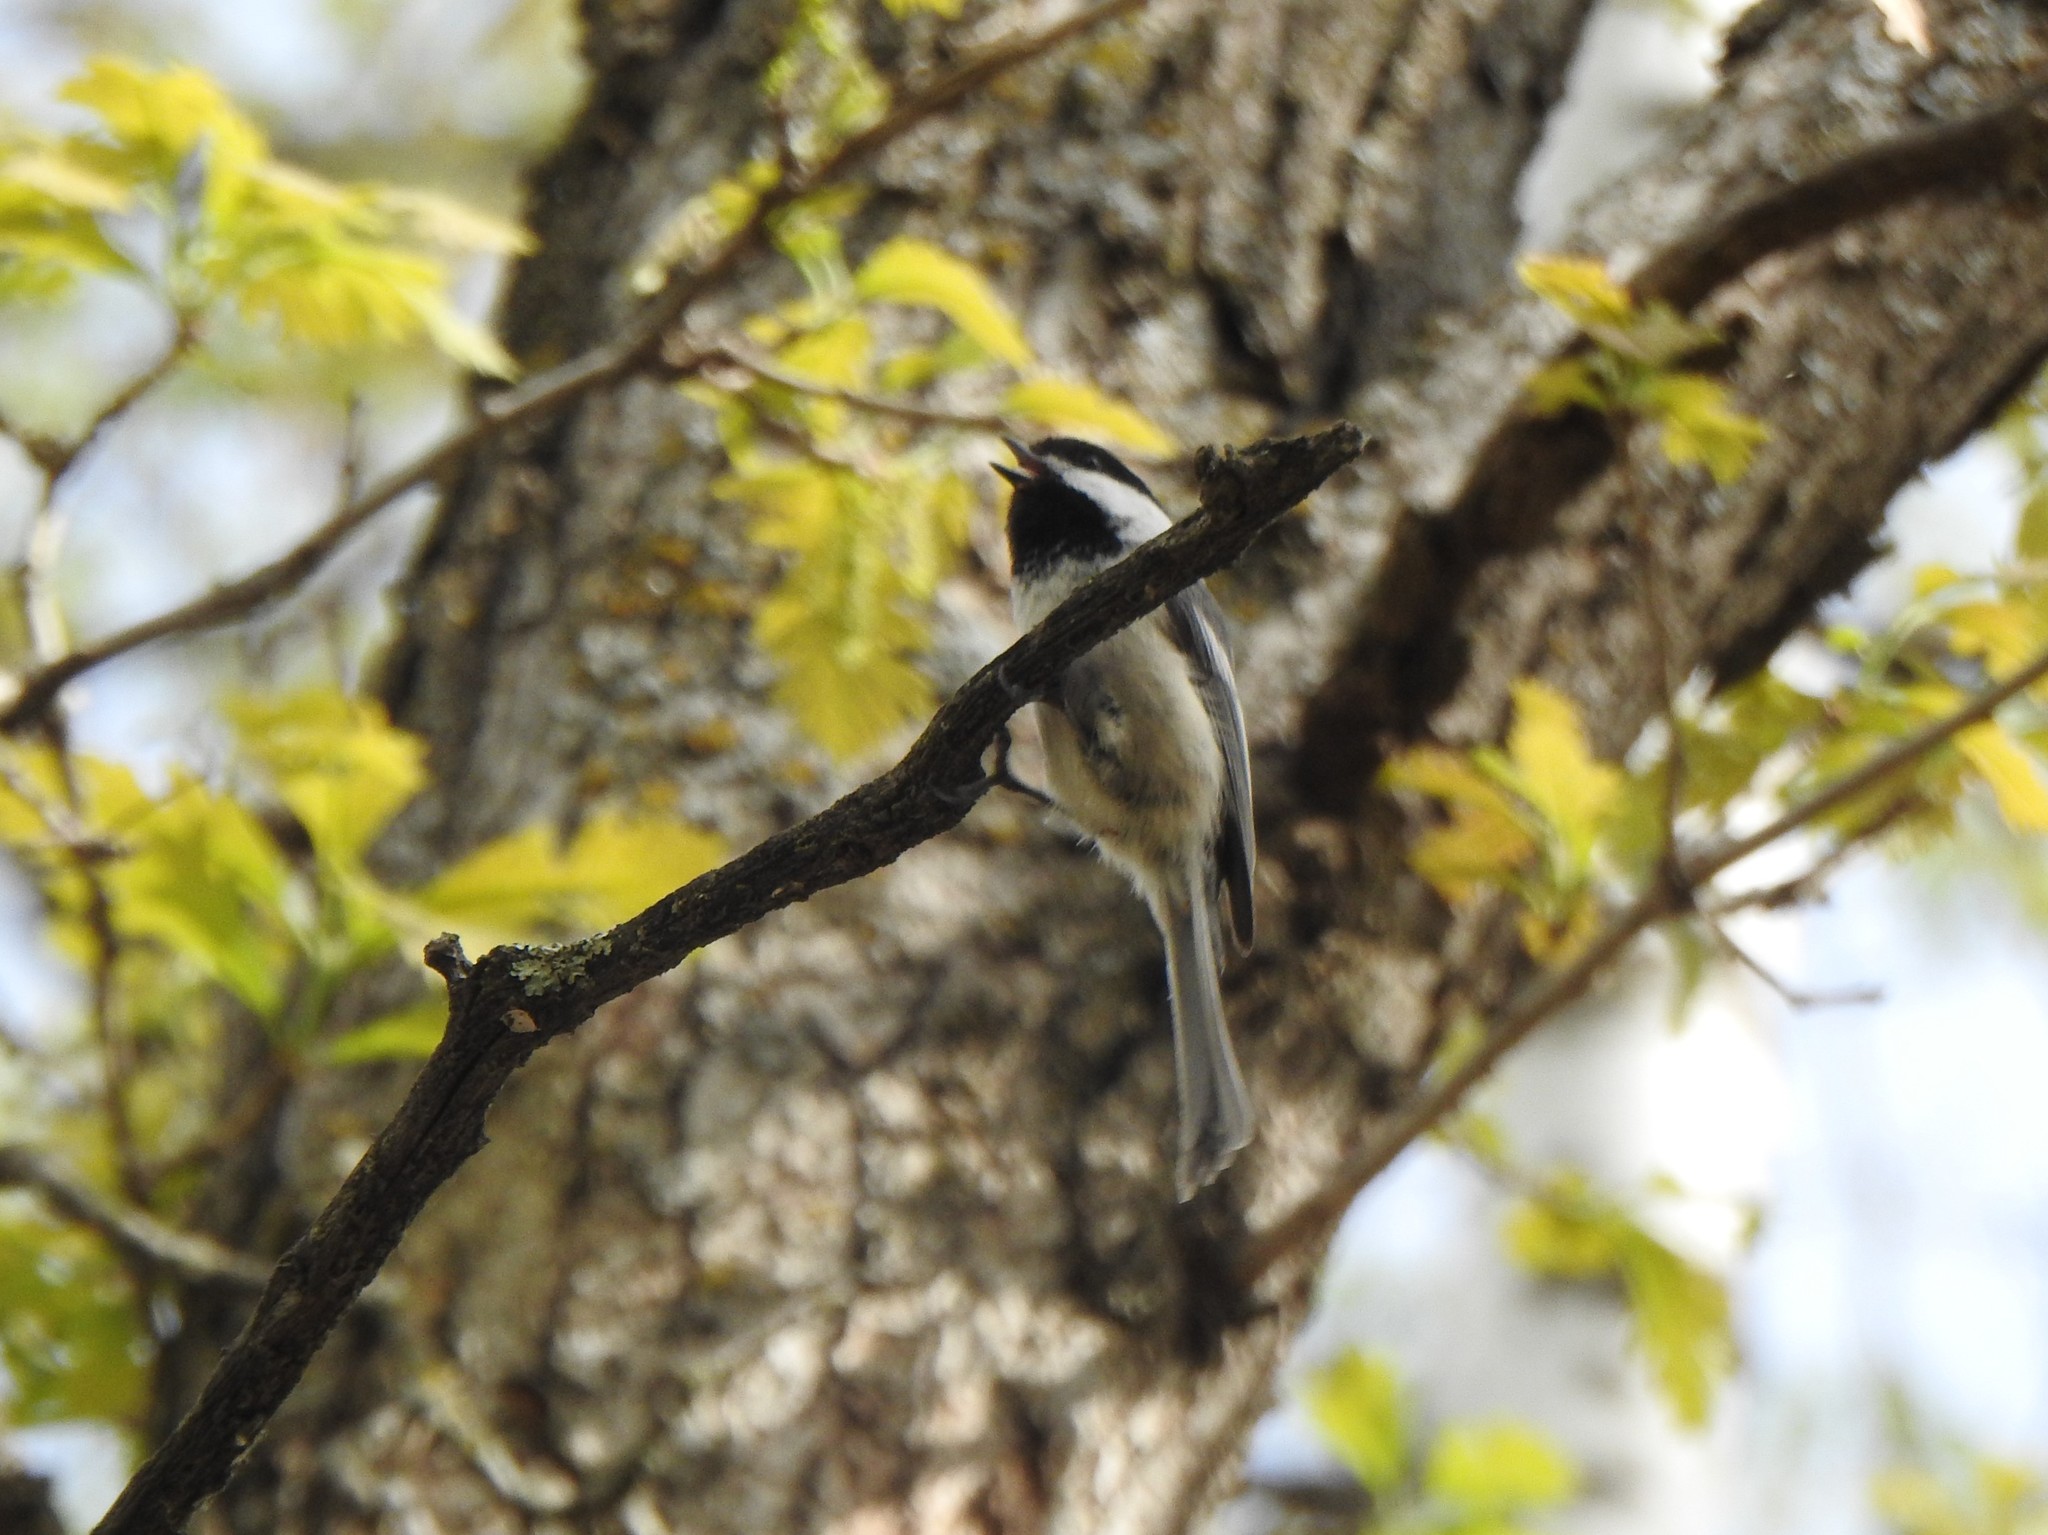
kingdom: Animalia
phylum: Chordata
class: Aves
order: Passeriformes
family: Paridae
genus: Poecile
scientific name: Poecile atricapillus
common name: Black-capped chickadee
